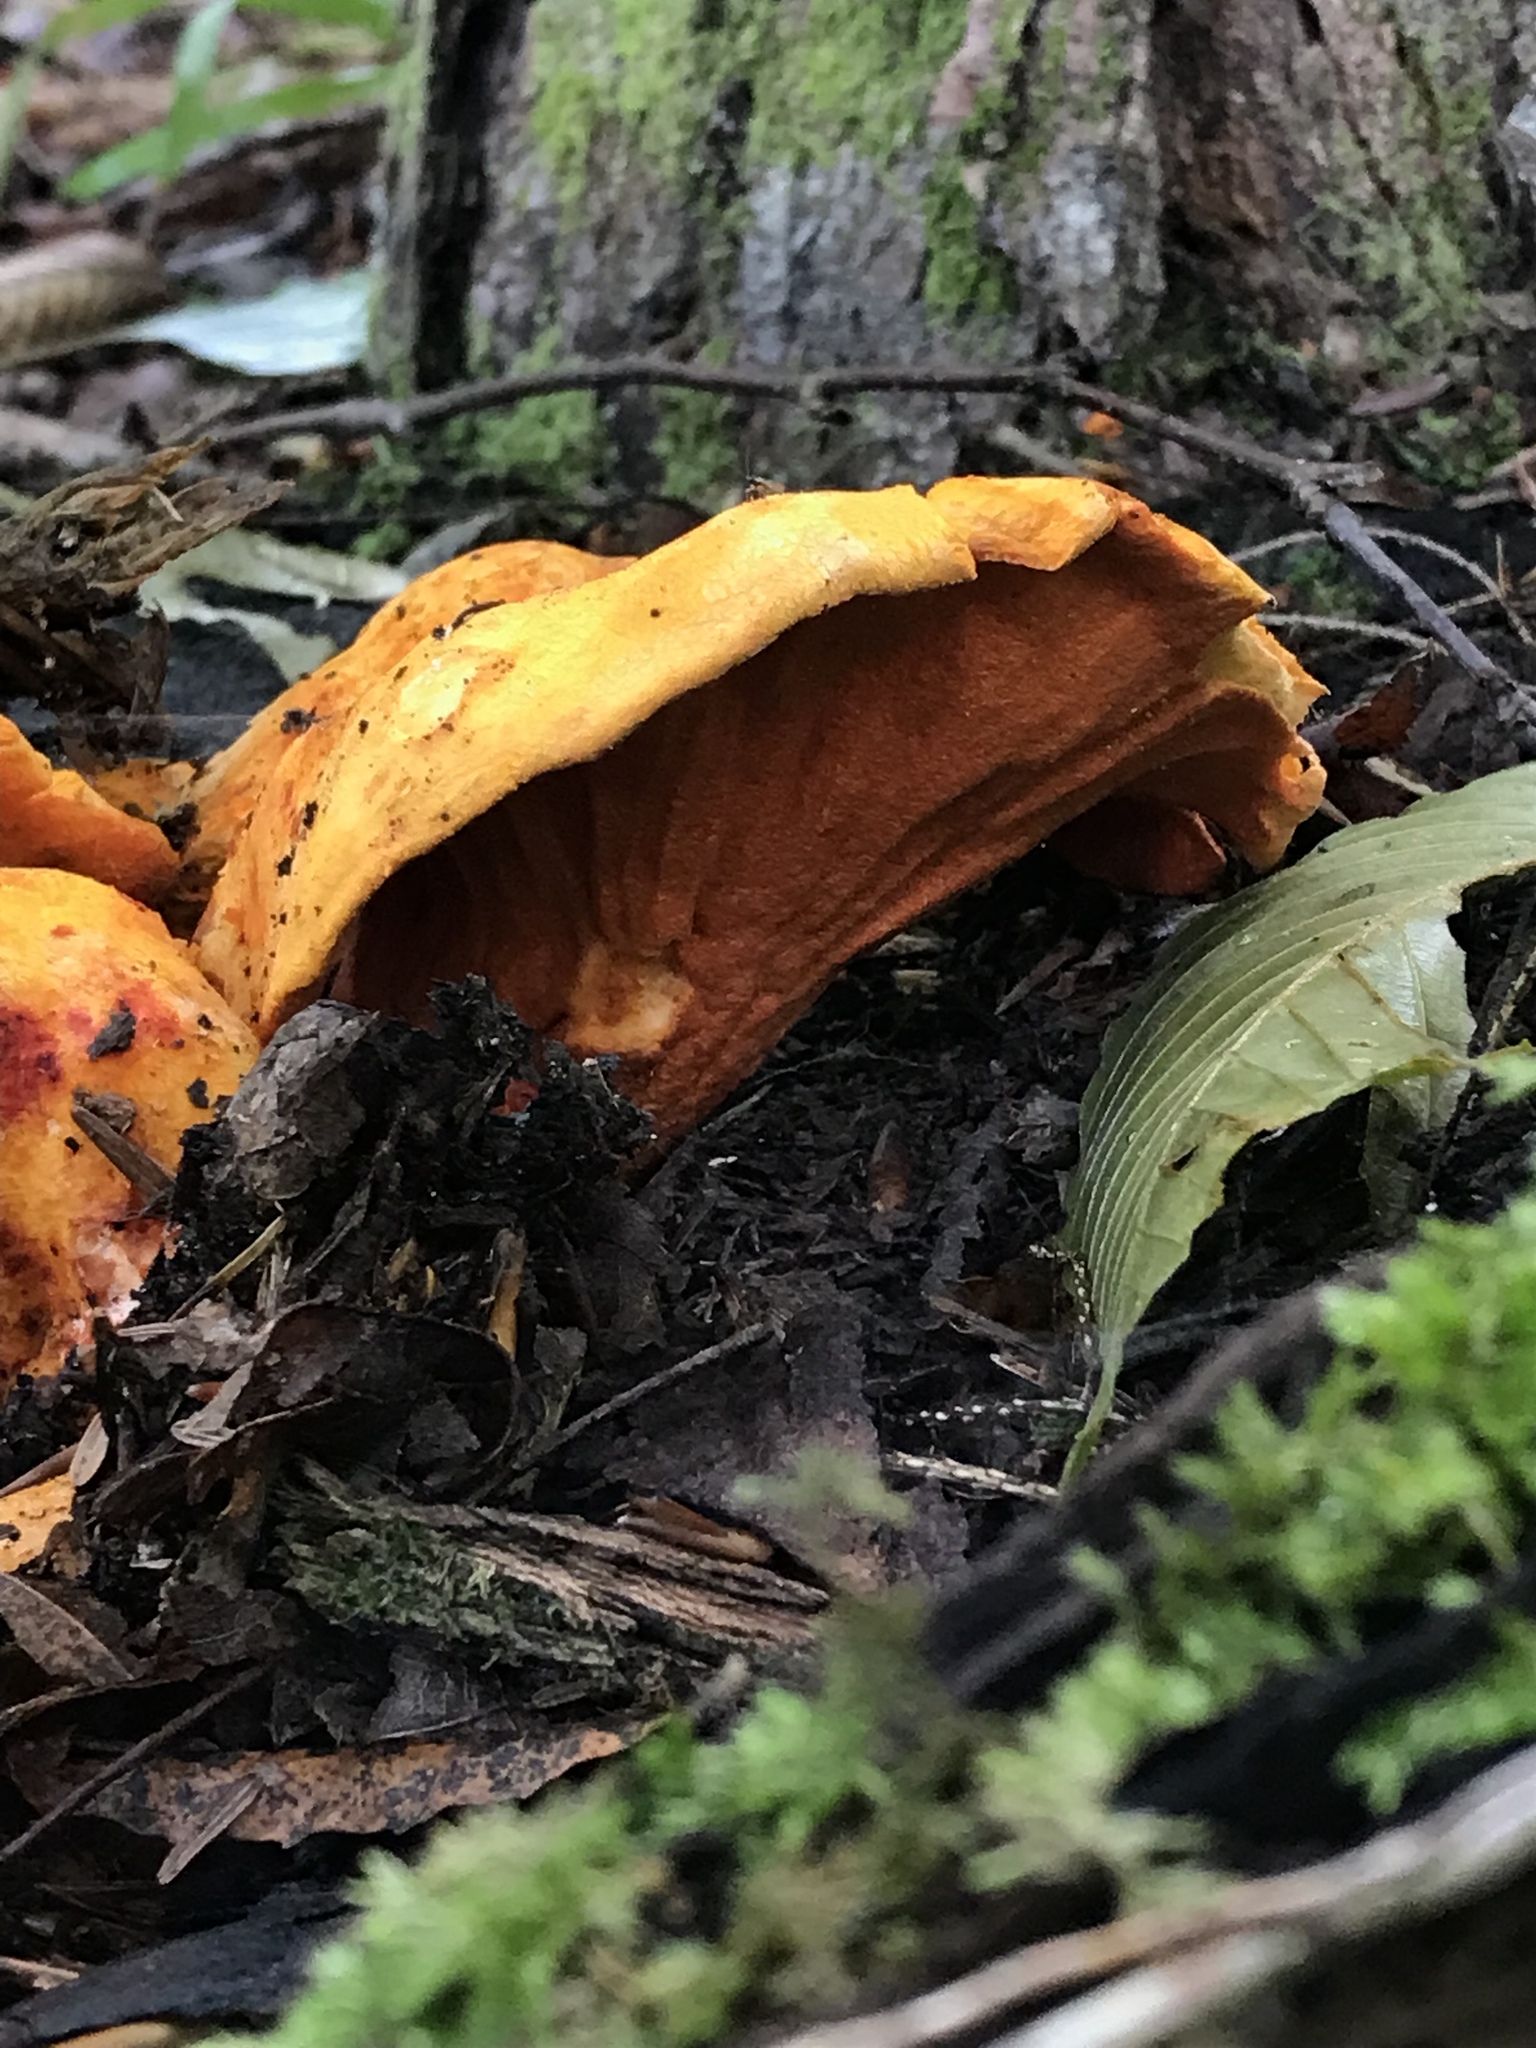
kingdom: Fungi
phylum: Ascomycota
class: Sordariomycetes
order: Hypocreales
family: Hypocreaceae
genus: Hypomyces
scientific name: Hypomyces lactifluorum
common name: Lobster mushroom
